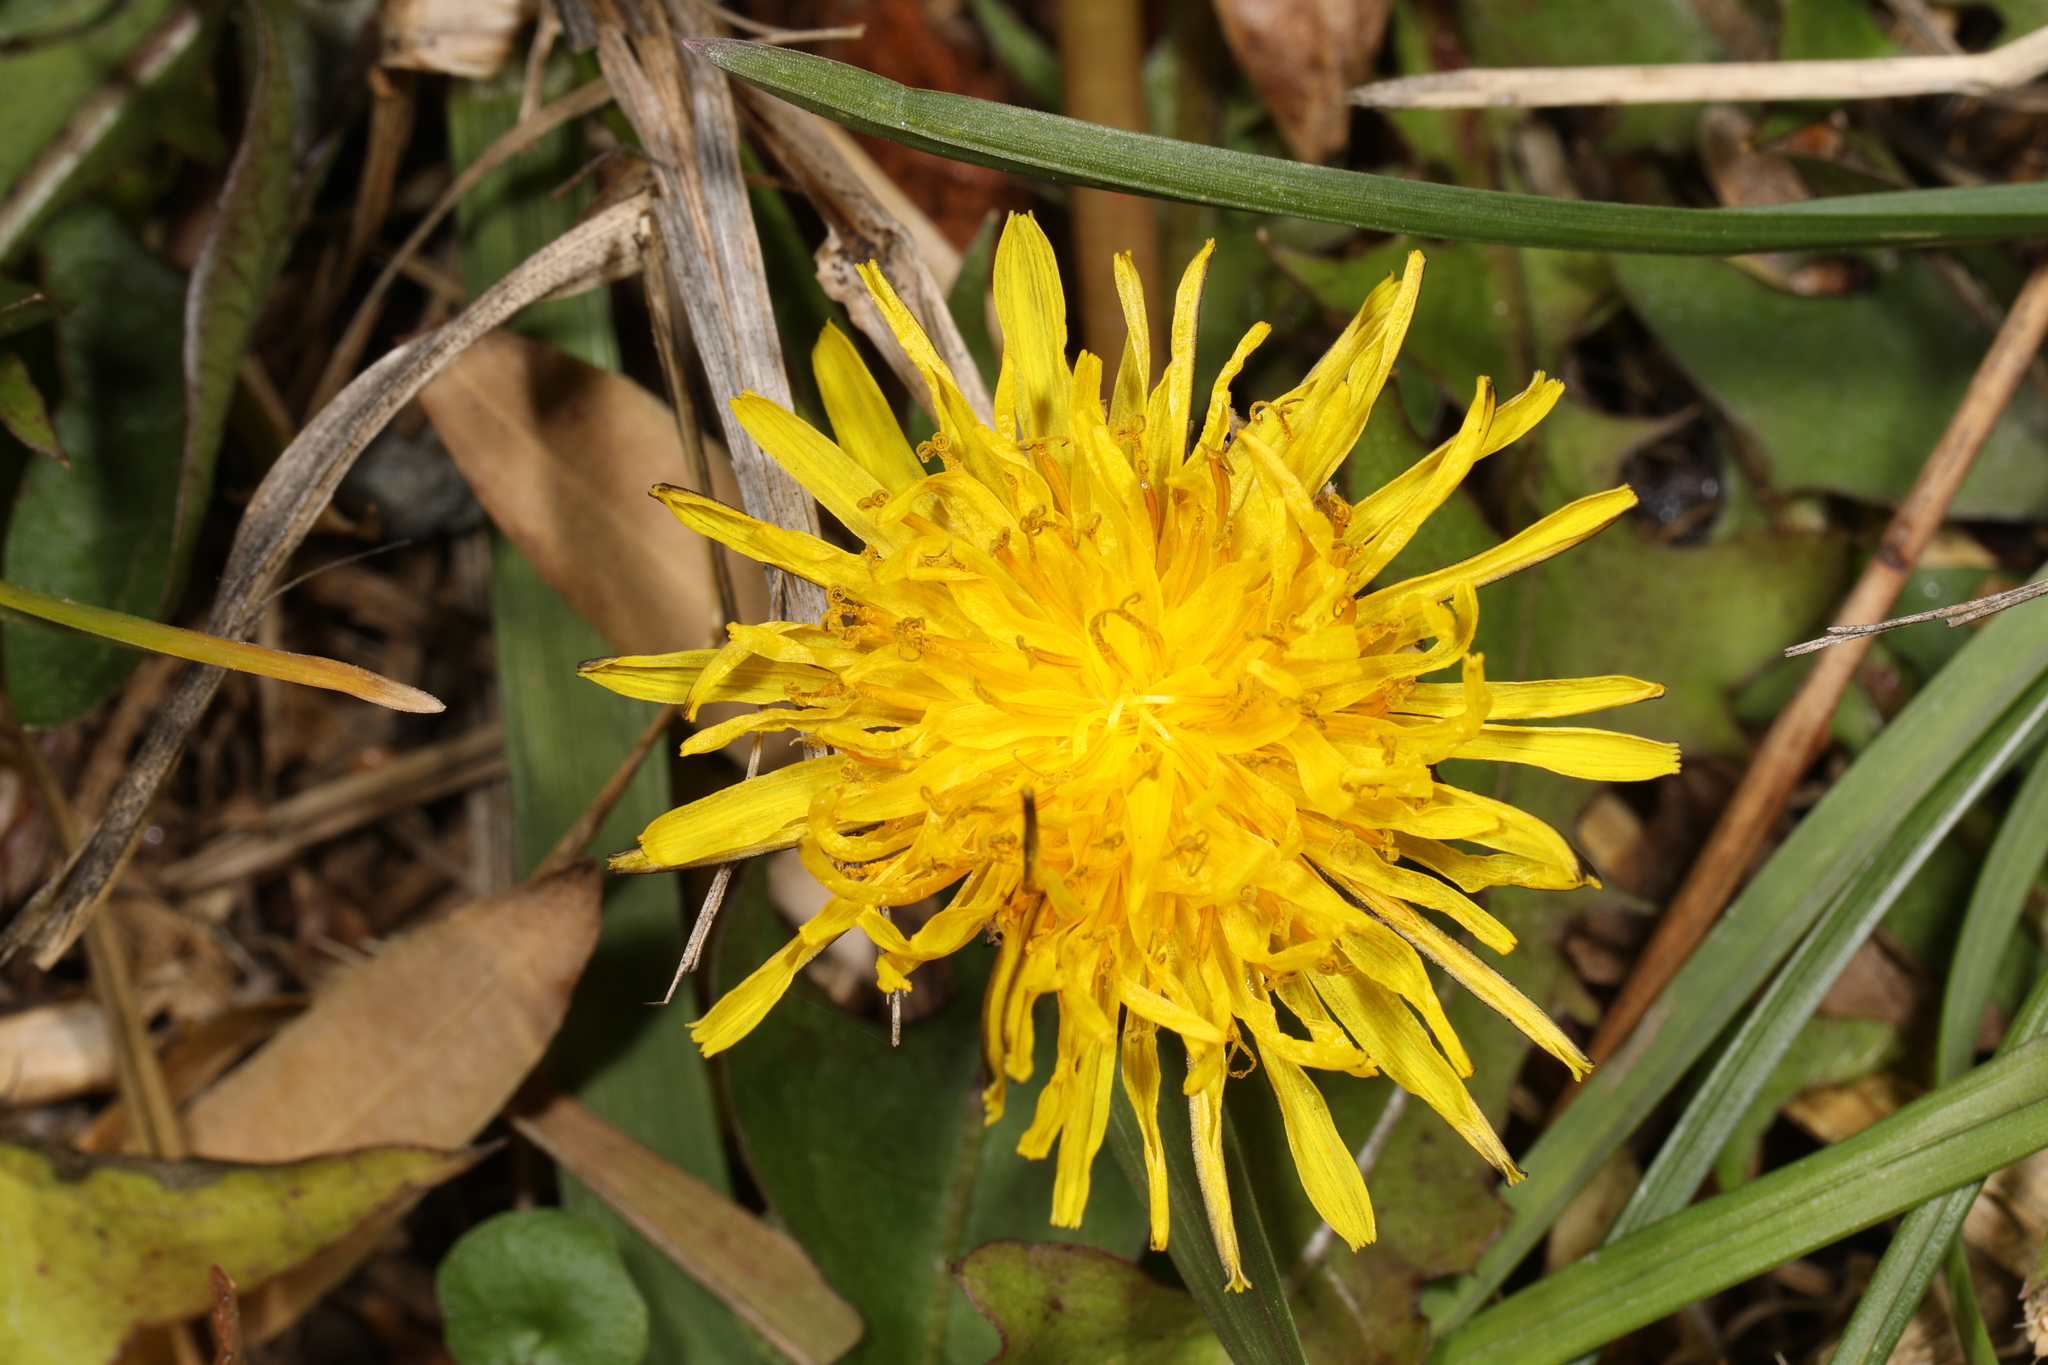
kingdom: Plantae
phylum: Tracheophyta
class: Magnoliopsida
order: Asterales
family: Asteraceae
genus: Taraxacum
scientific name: Taraxacum officinale
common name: Common dandelion
